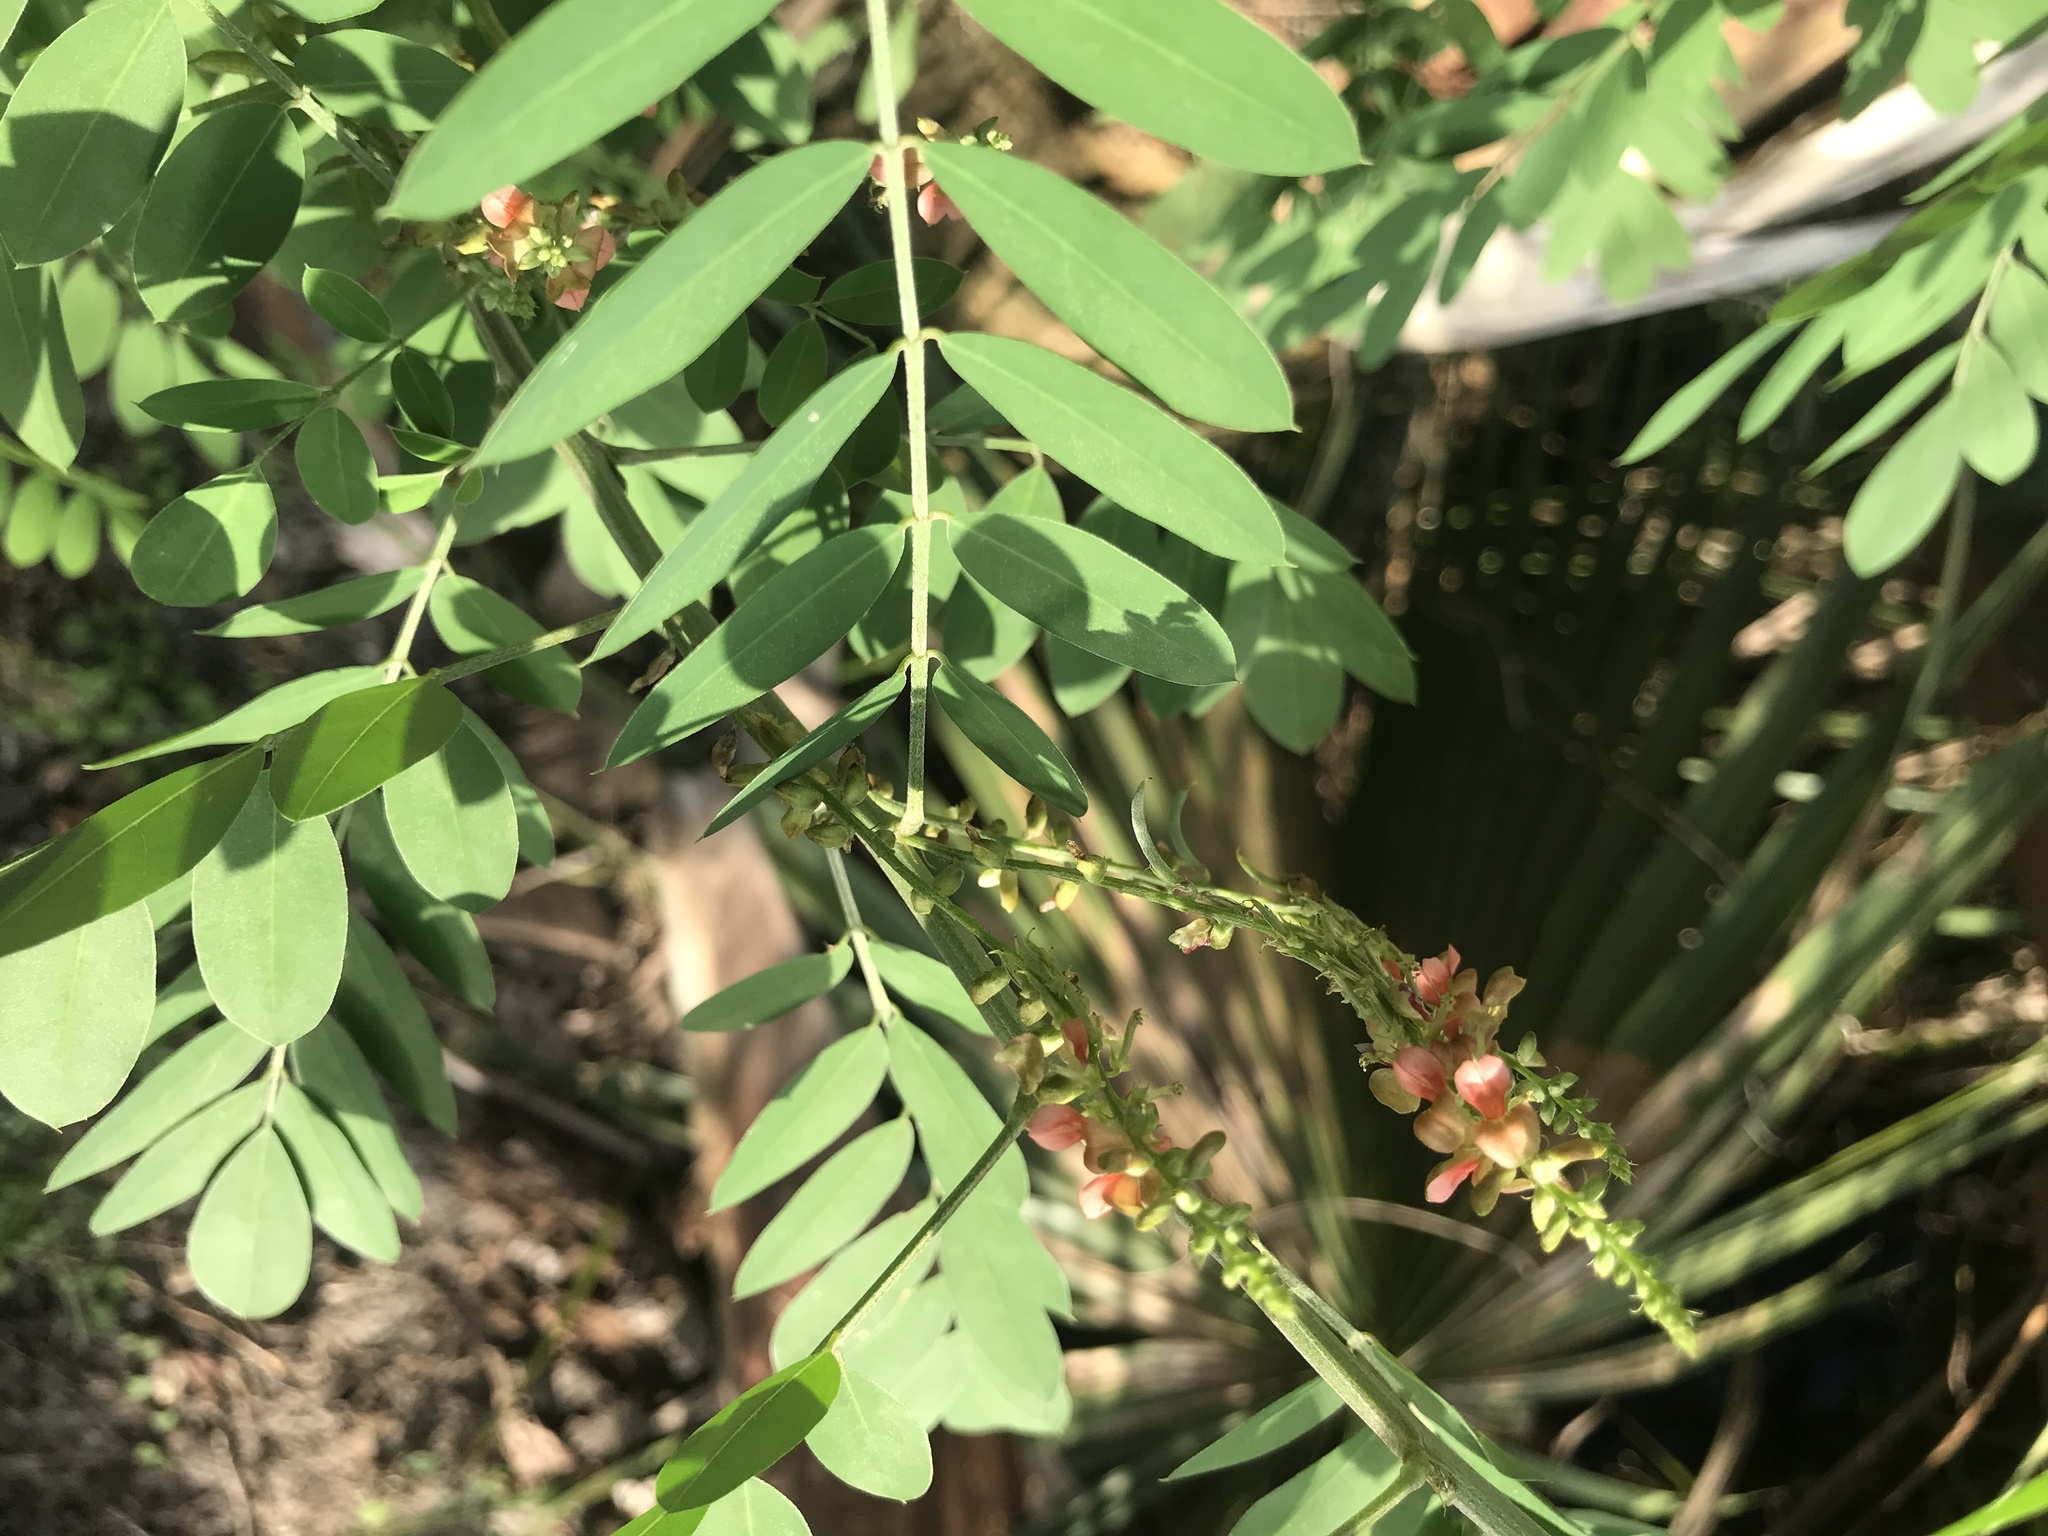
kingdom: Plantae
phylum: Tracheophyta
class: Magnoliopsida
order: Fabales
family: Fabaceae
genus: Indigofera
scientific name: Indigofera suffruticosa
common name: Anil de pasto
